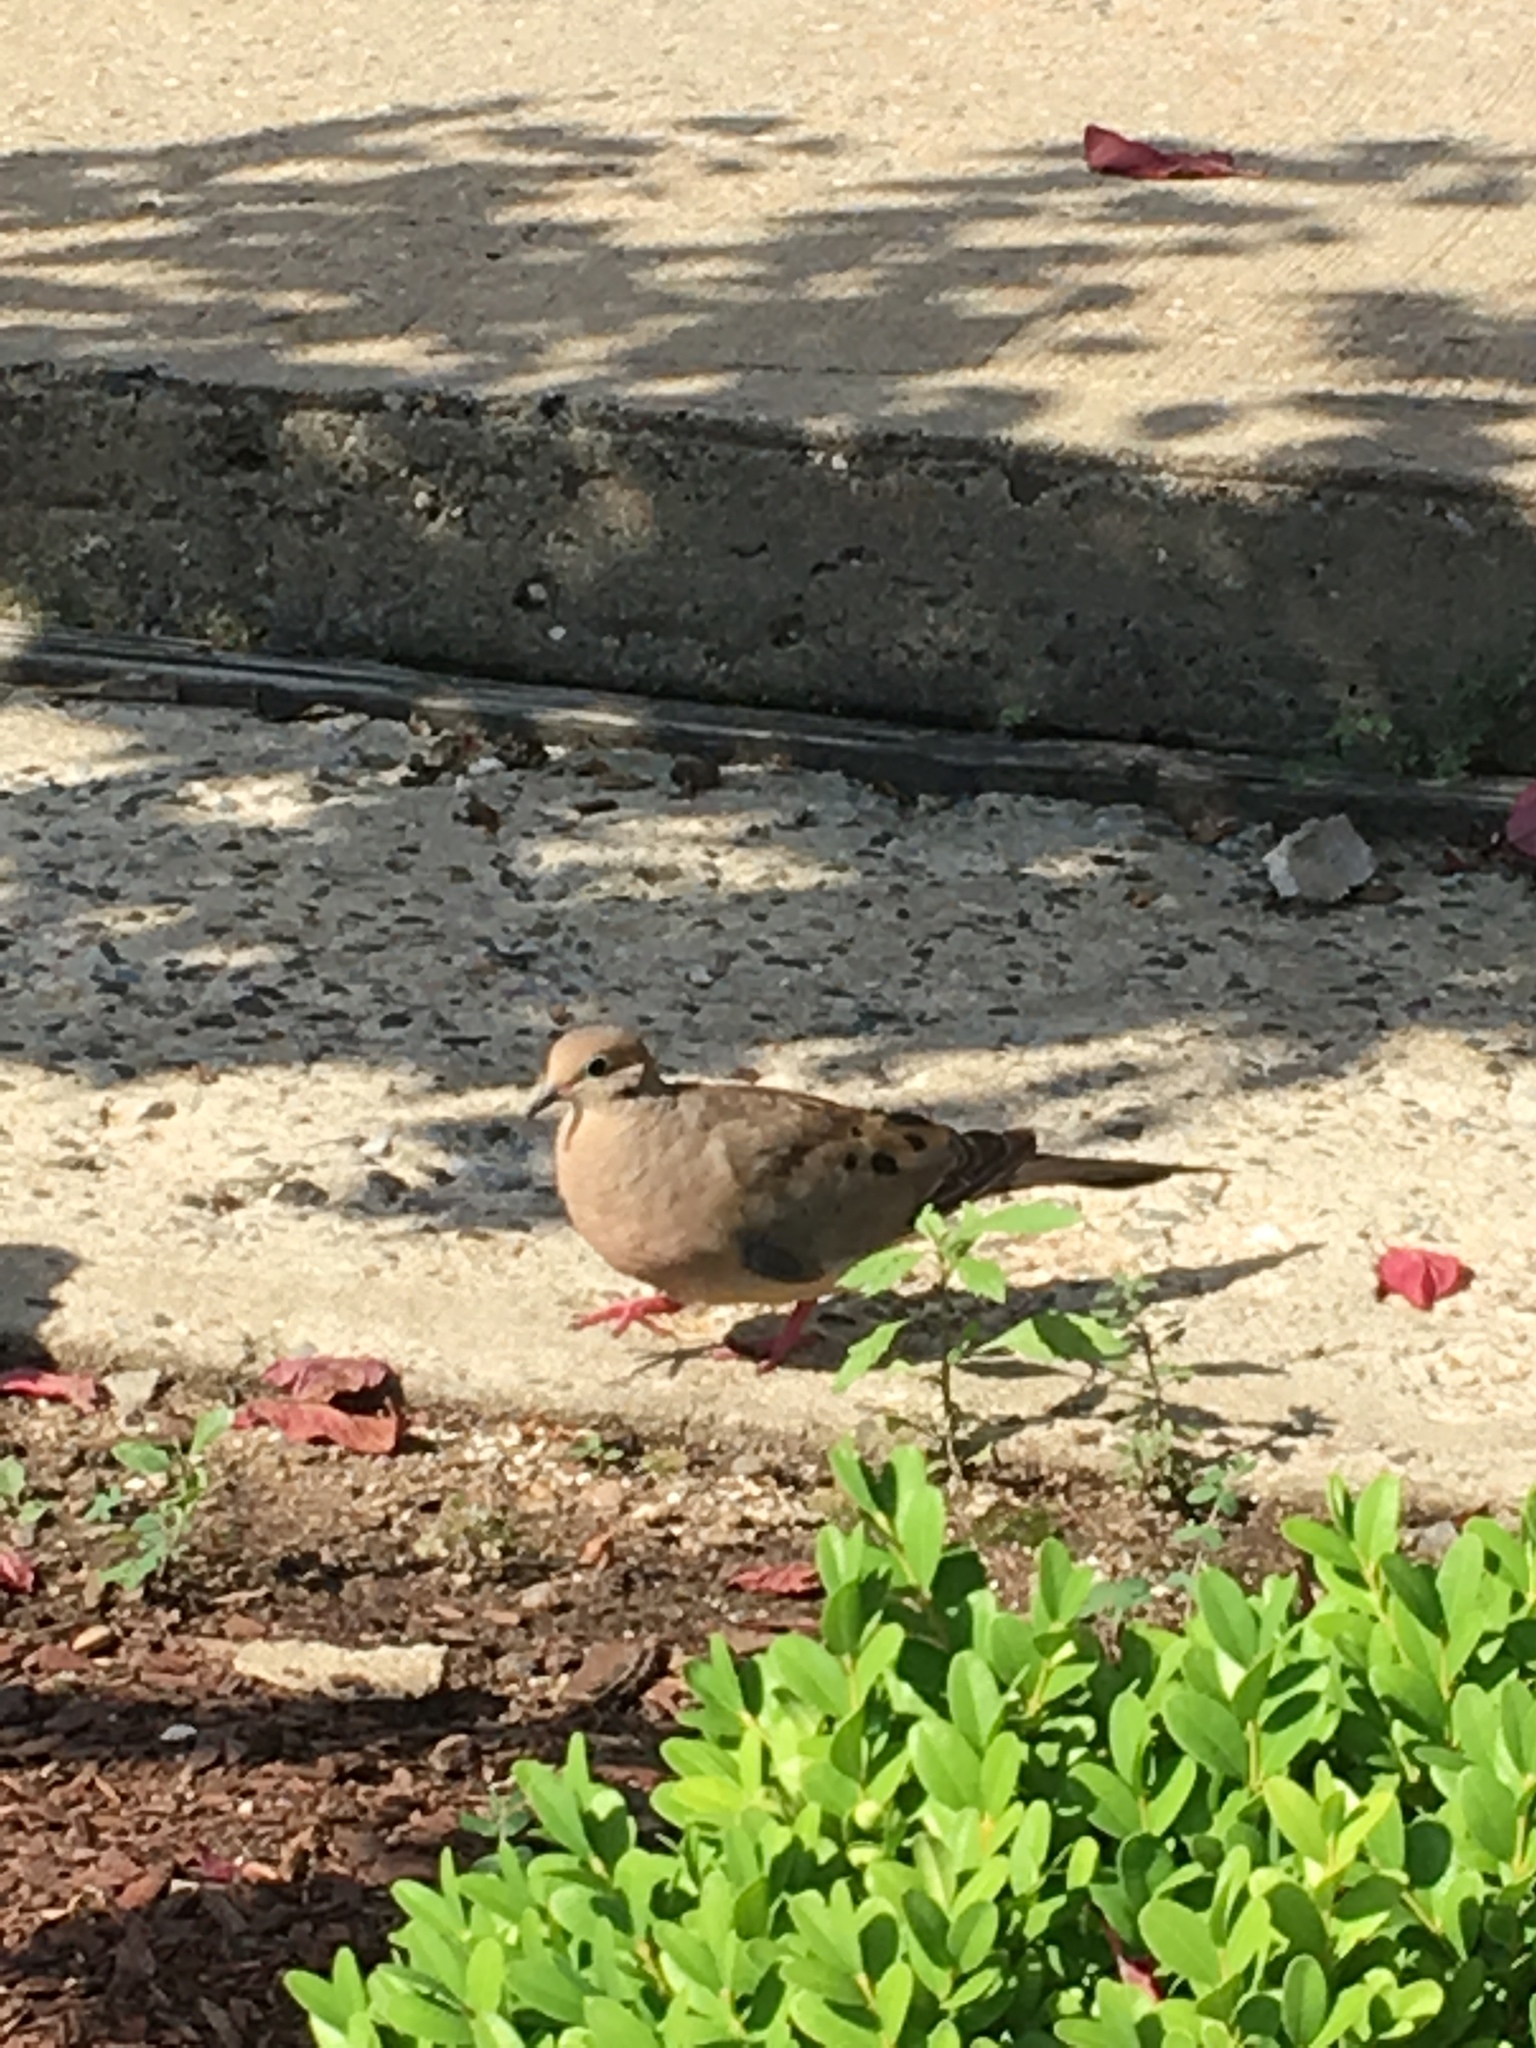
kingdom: Animalia
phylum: Chordata
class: Aves
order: Columbiformes
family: Columbidae
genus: Zenaida
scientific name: Zenaida macroura
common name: Mourning dove
